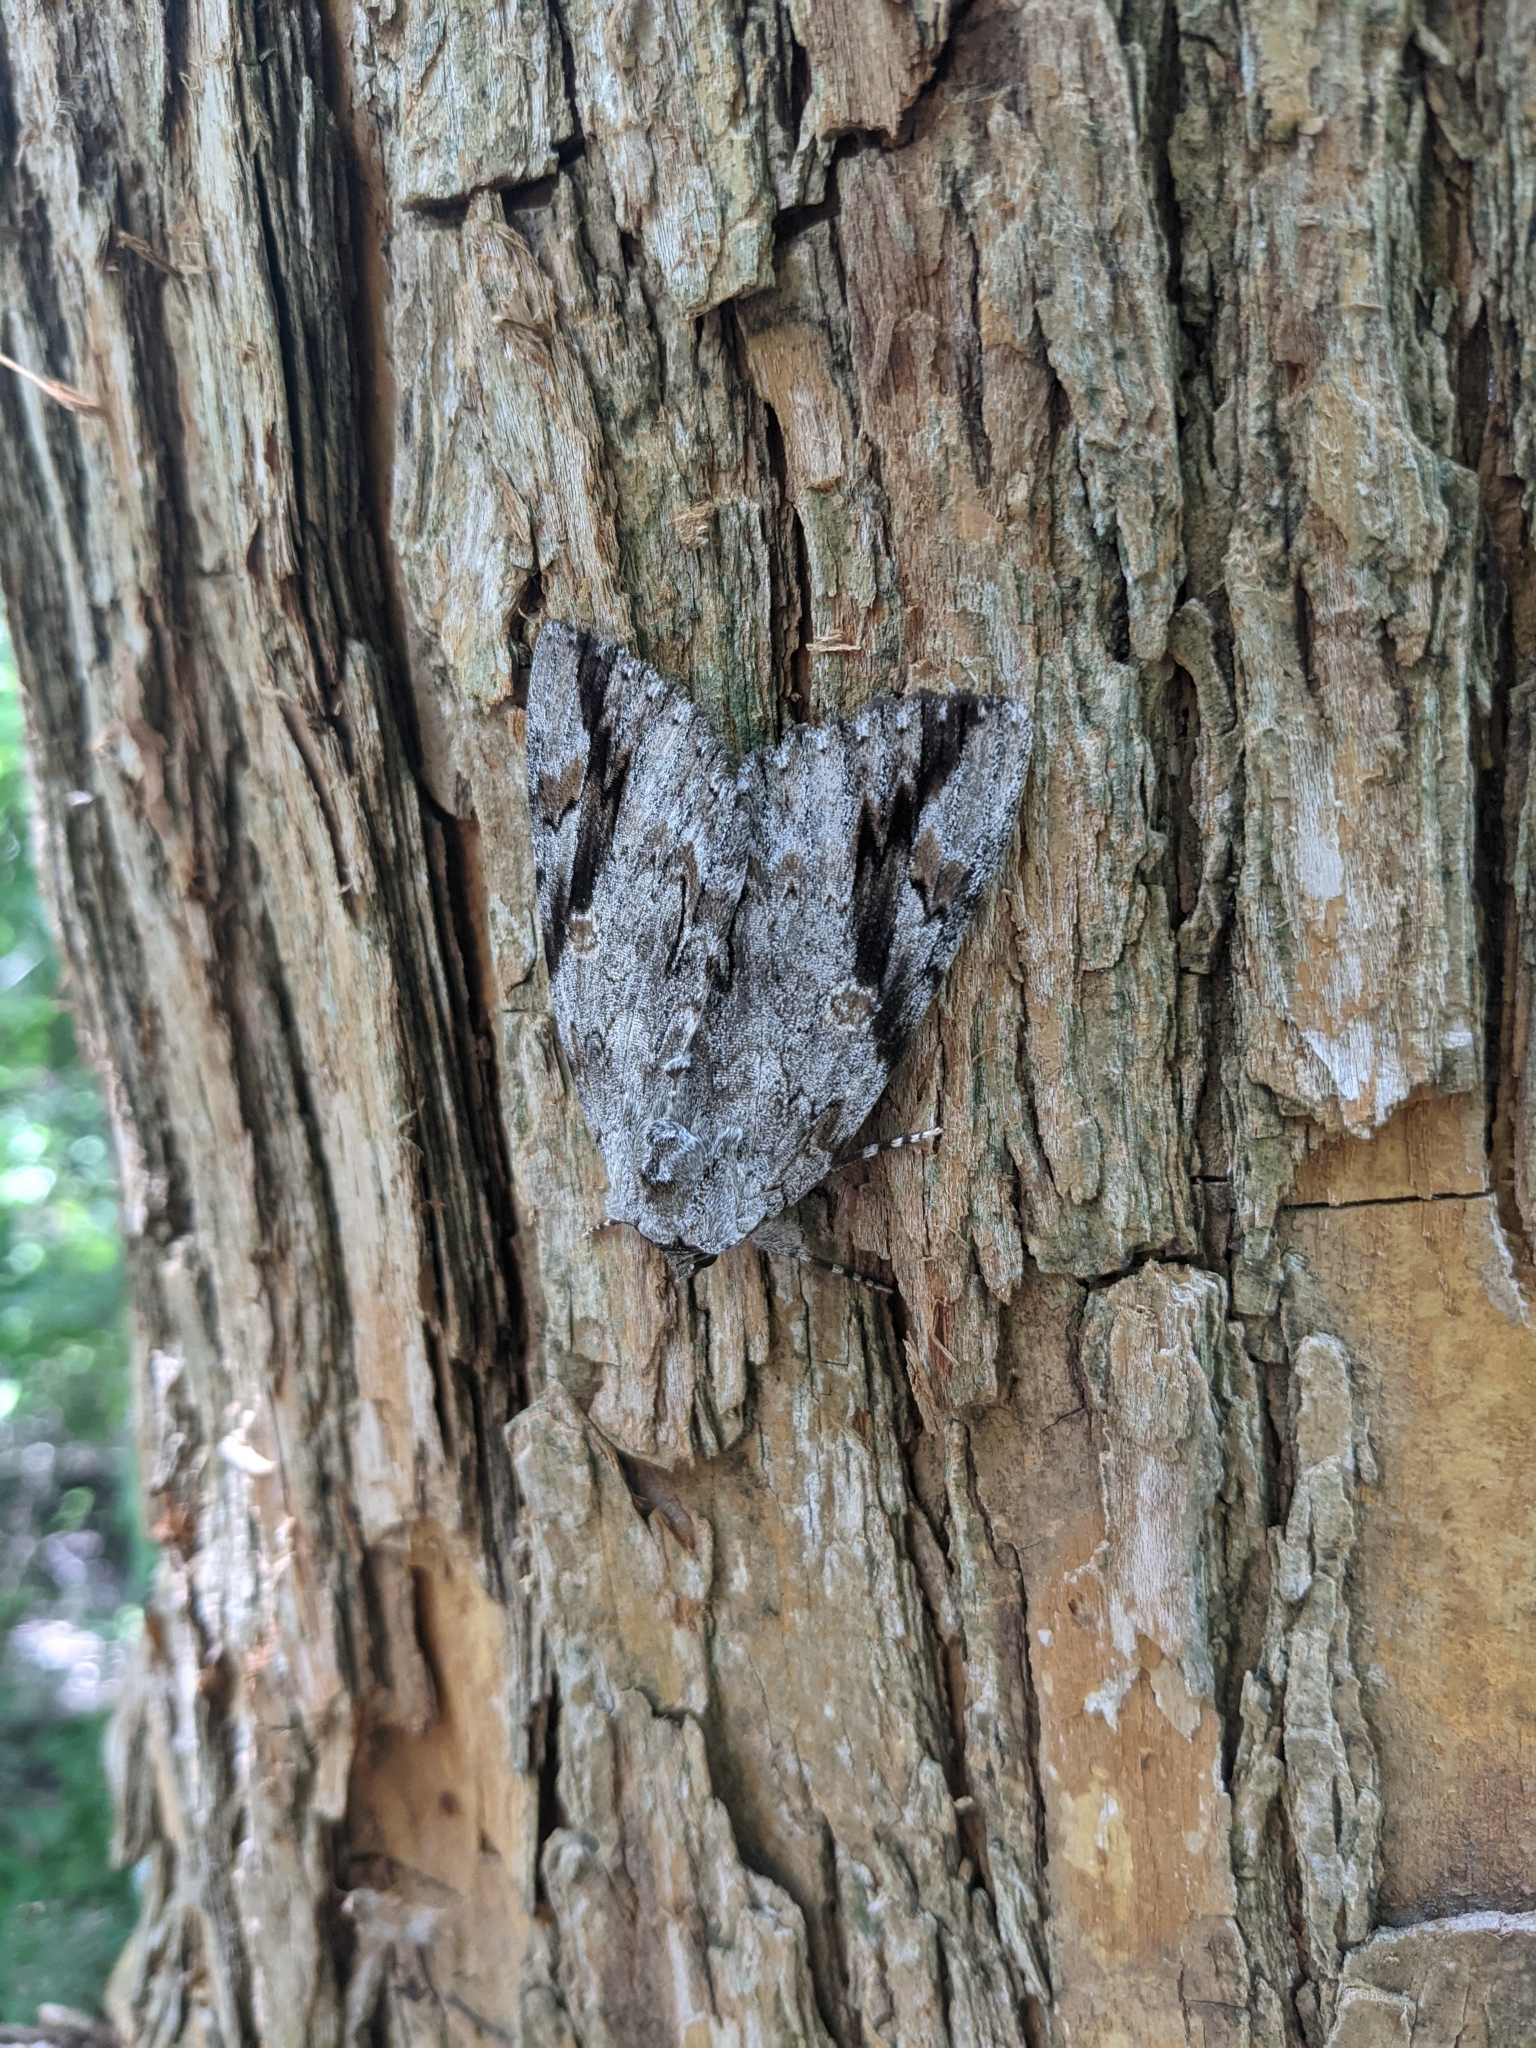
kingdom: Animalia
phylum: Arthropoda
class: Insecta
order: Lepidoptera
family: Erebidae
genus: Catocala
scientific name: Catocala maestosa
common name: Sad underwing
